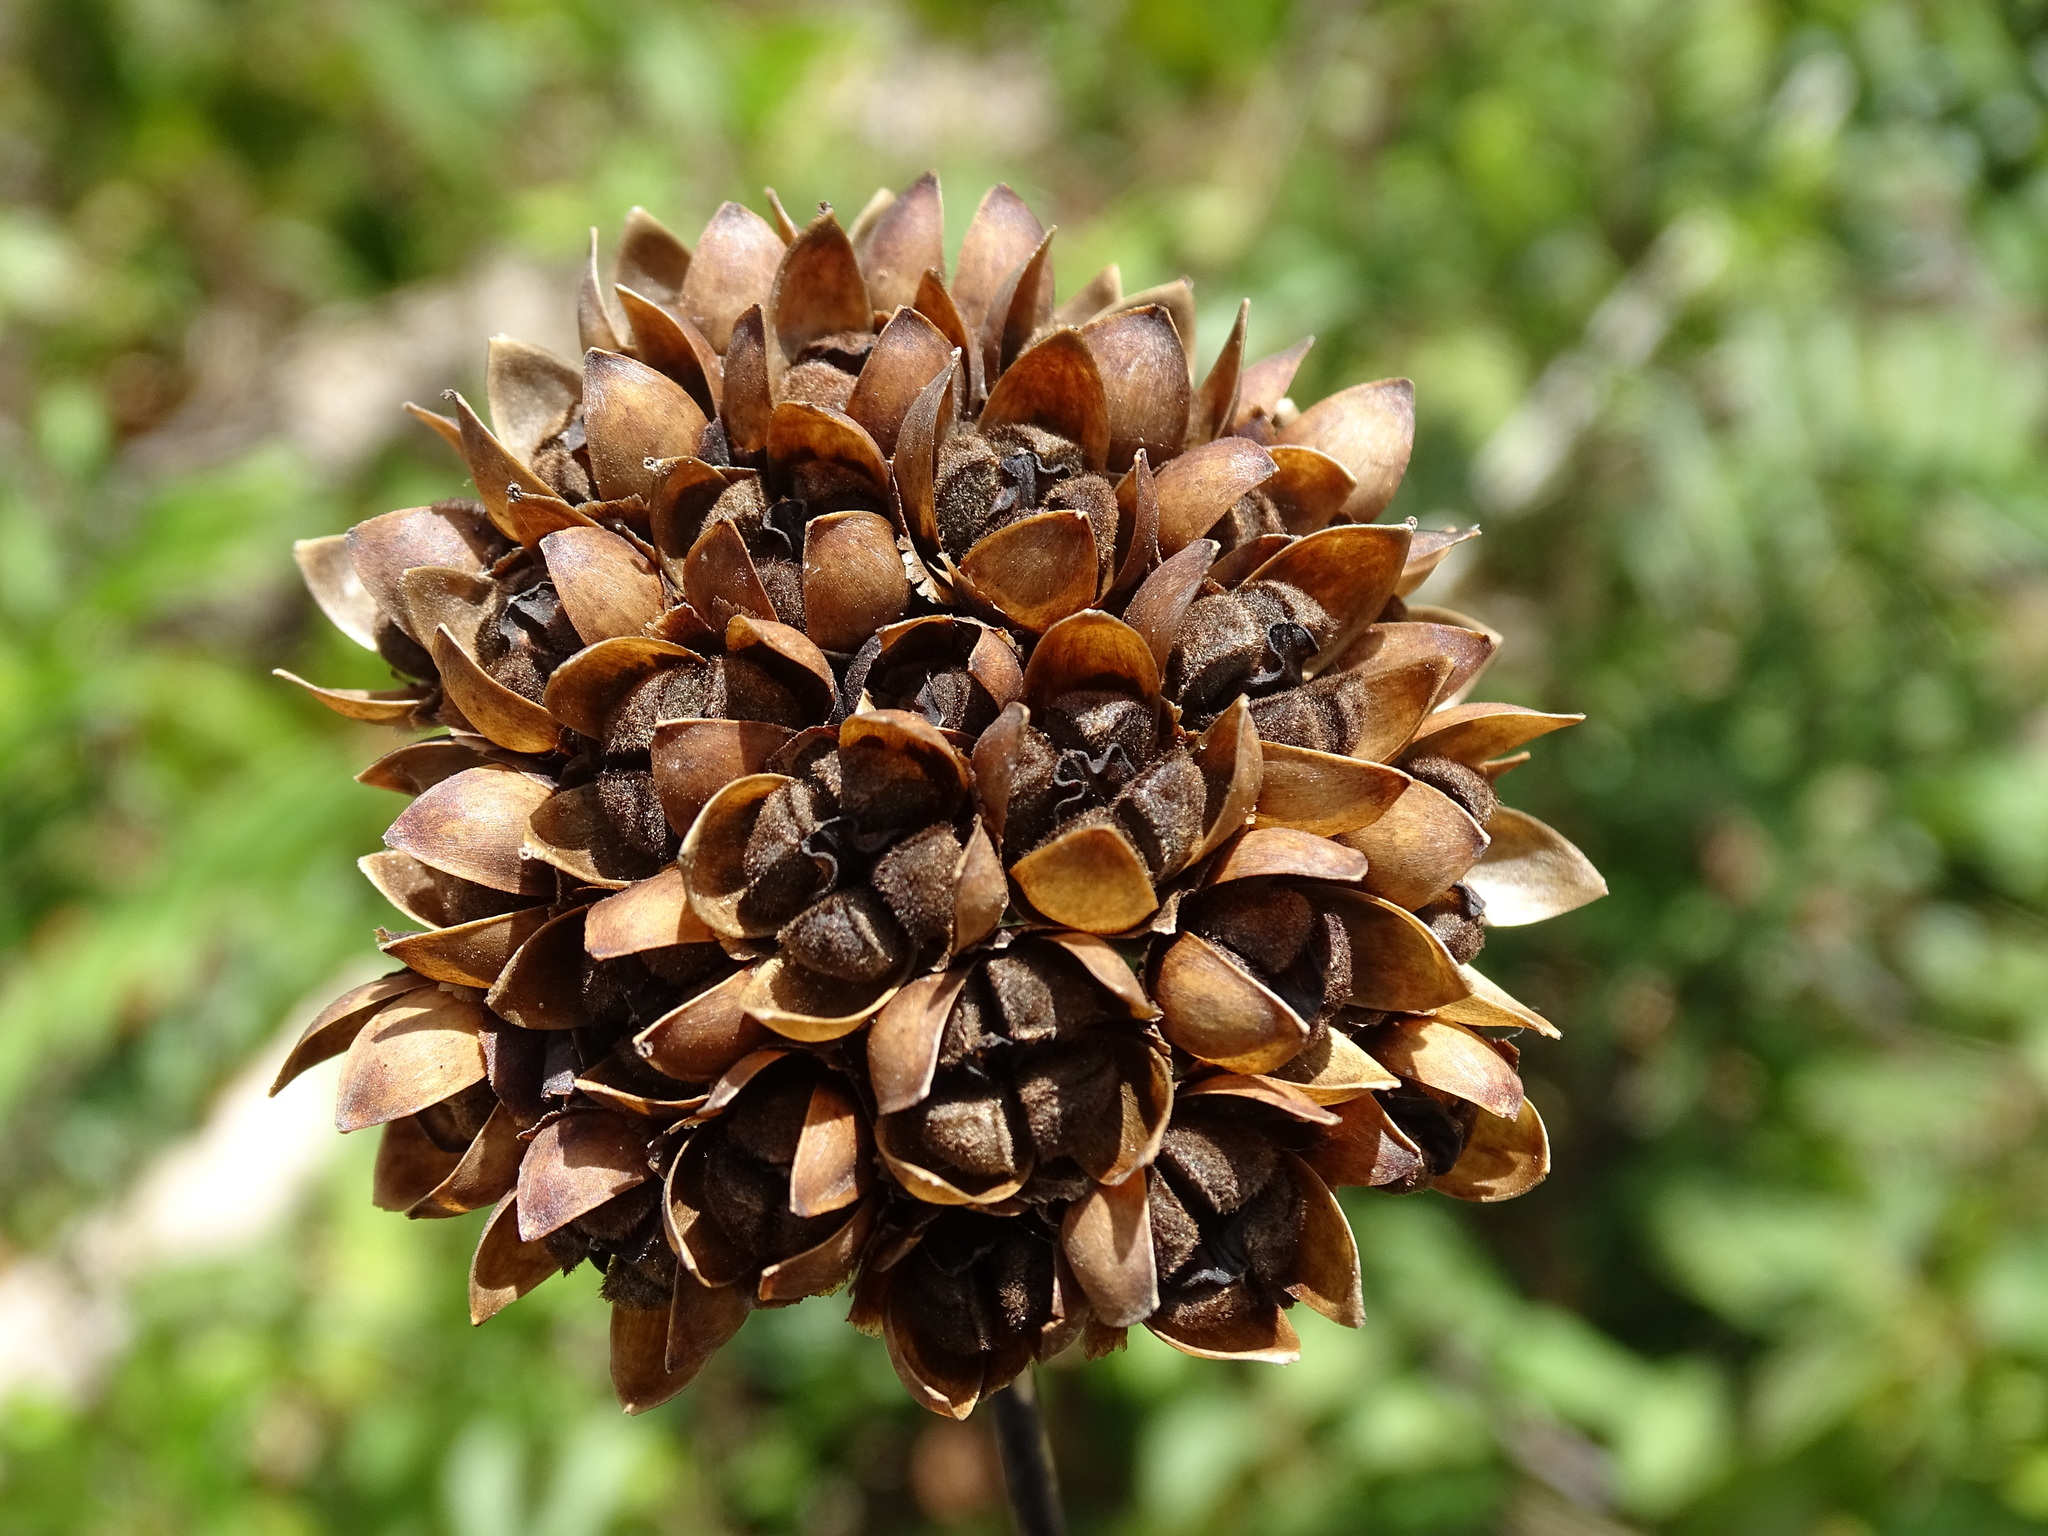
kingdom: Plantae
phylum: Tracheophyta
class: Magnoliopsida
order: Solanales
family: Convolvulaceae
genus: Camonea
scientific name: Camonea umbellata
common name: Hogvine
